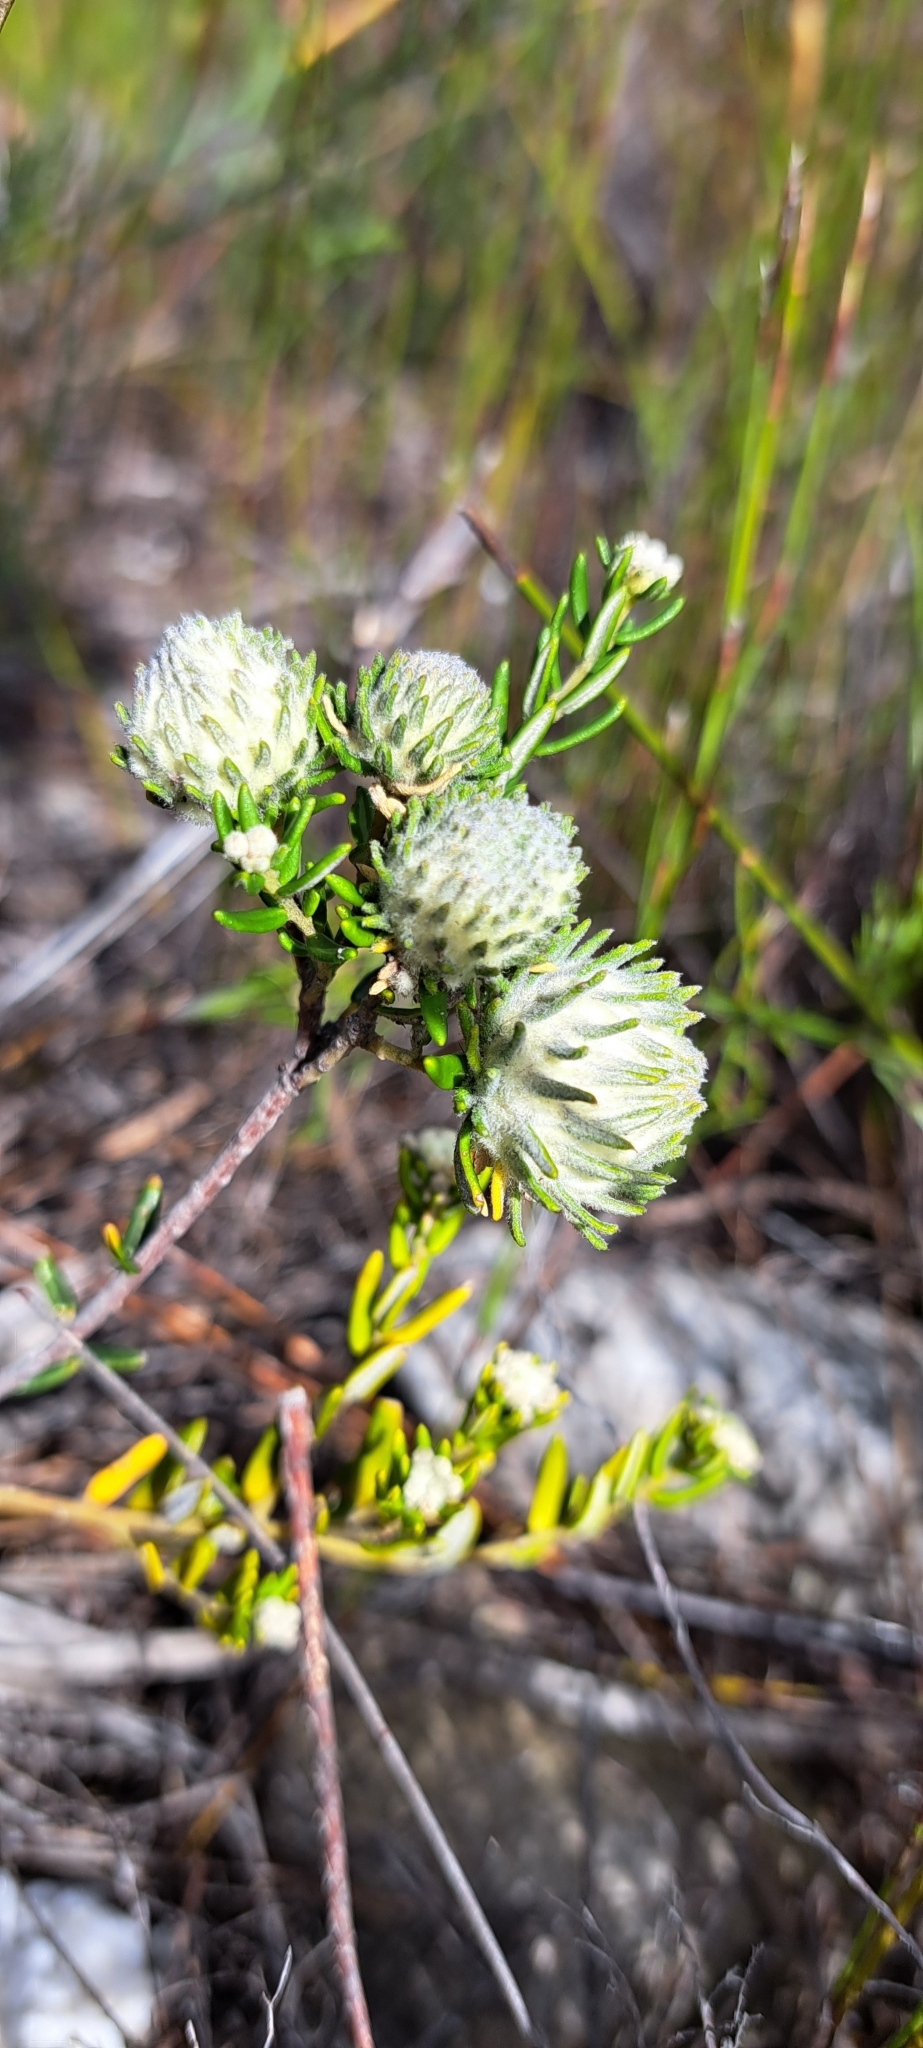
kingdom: Plantae
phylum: Tracheophyta
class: Magnoliopsida
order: Rosales
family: Rhamnaceae
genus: Phylica
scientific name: Phylica lasiocarpa
